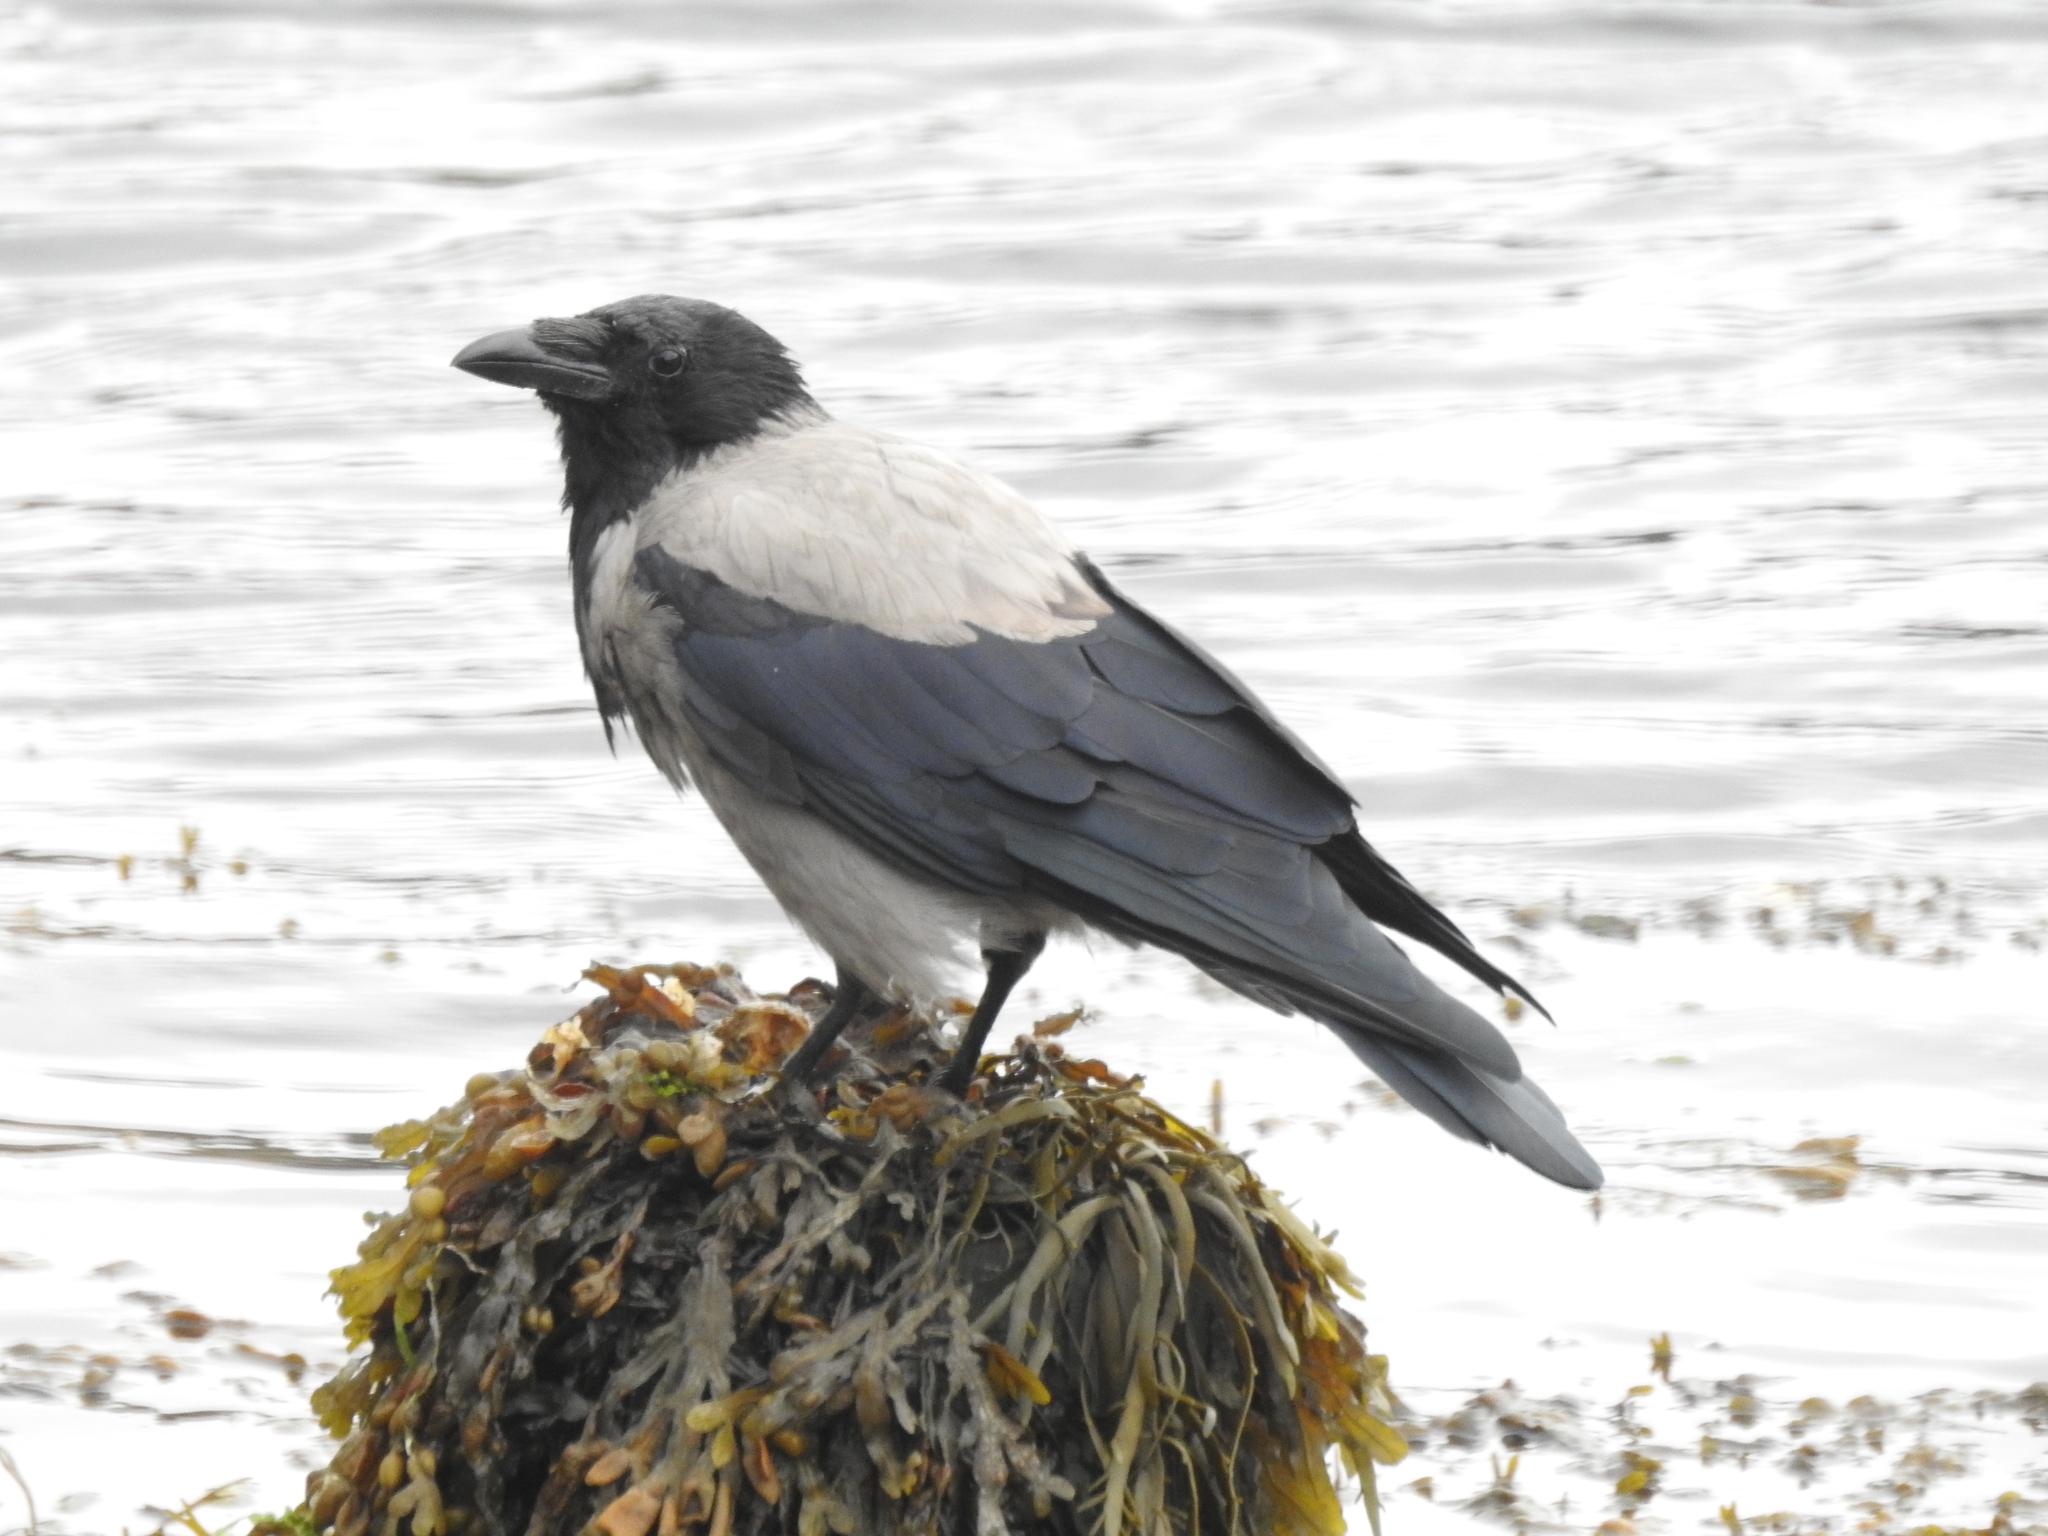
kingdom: Animalia
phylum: Chordata
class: Aves
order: Passeriformes
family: Corvidae
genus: Corvus
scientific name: Corvus cornix
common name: Hooded crow
